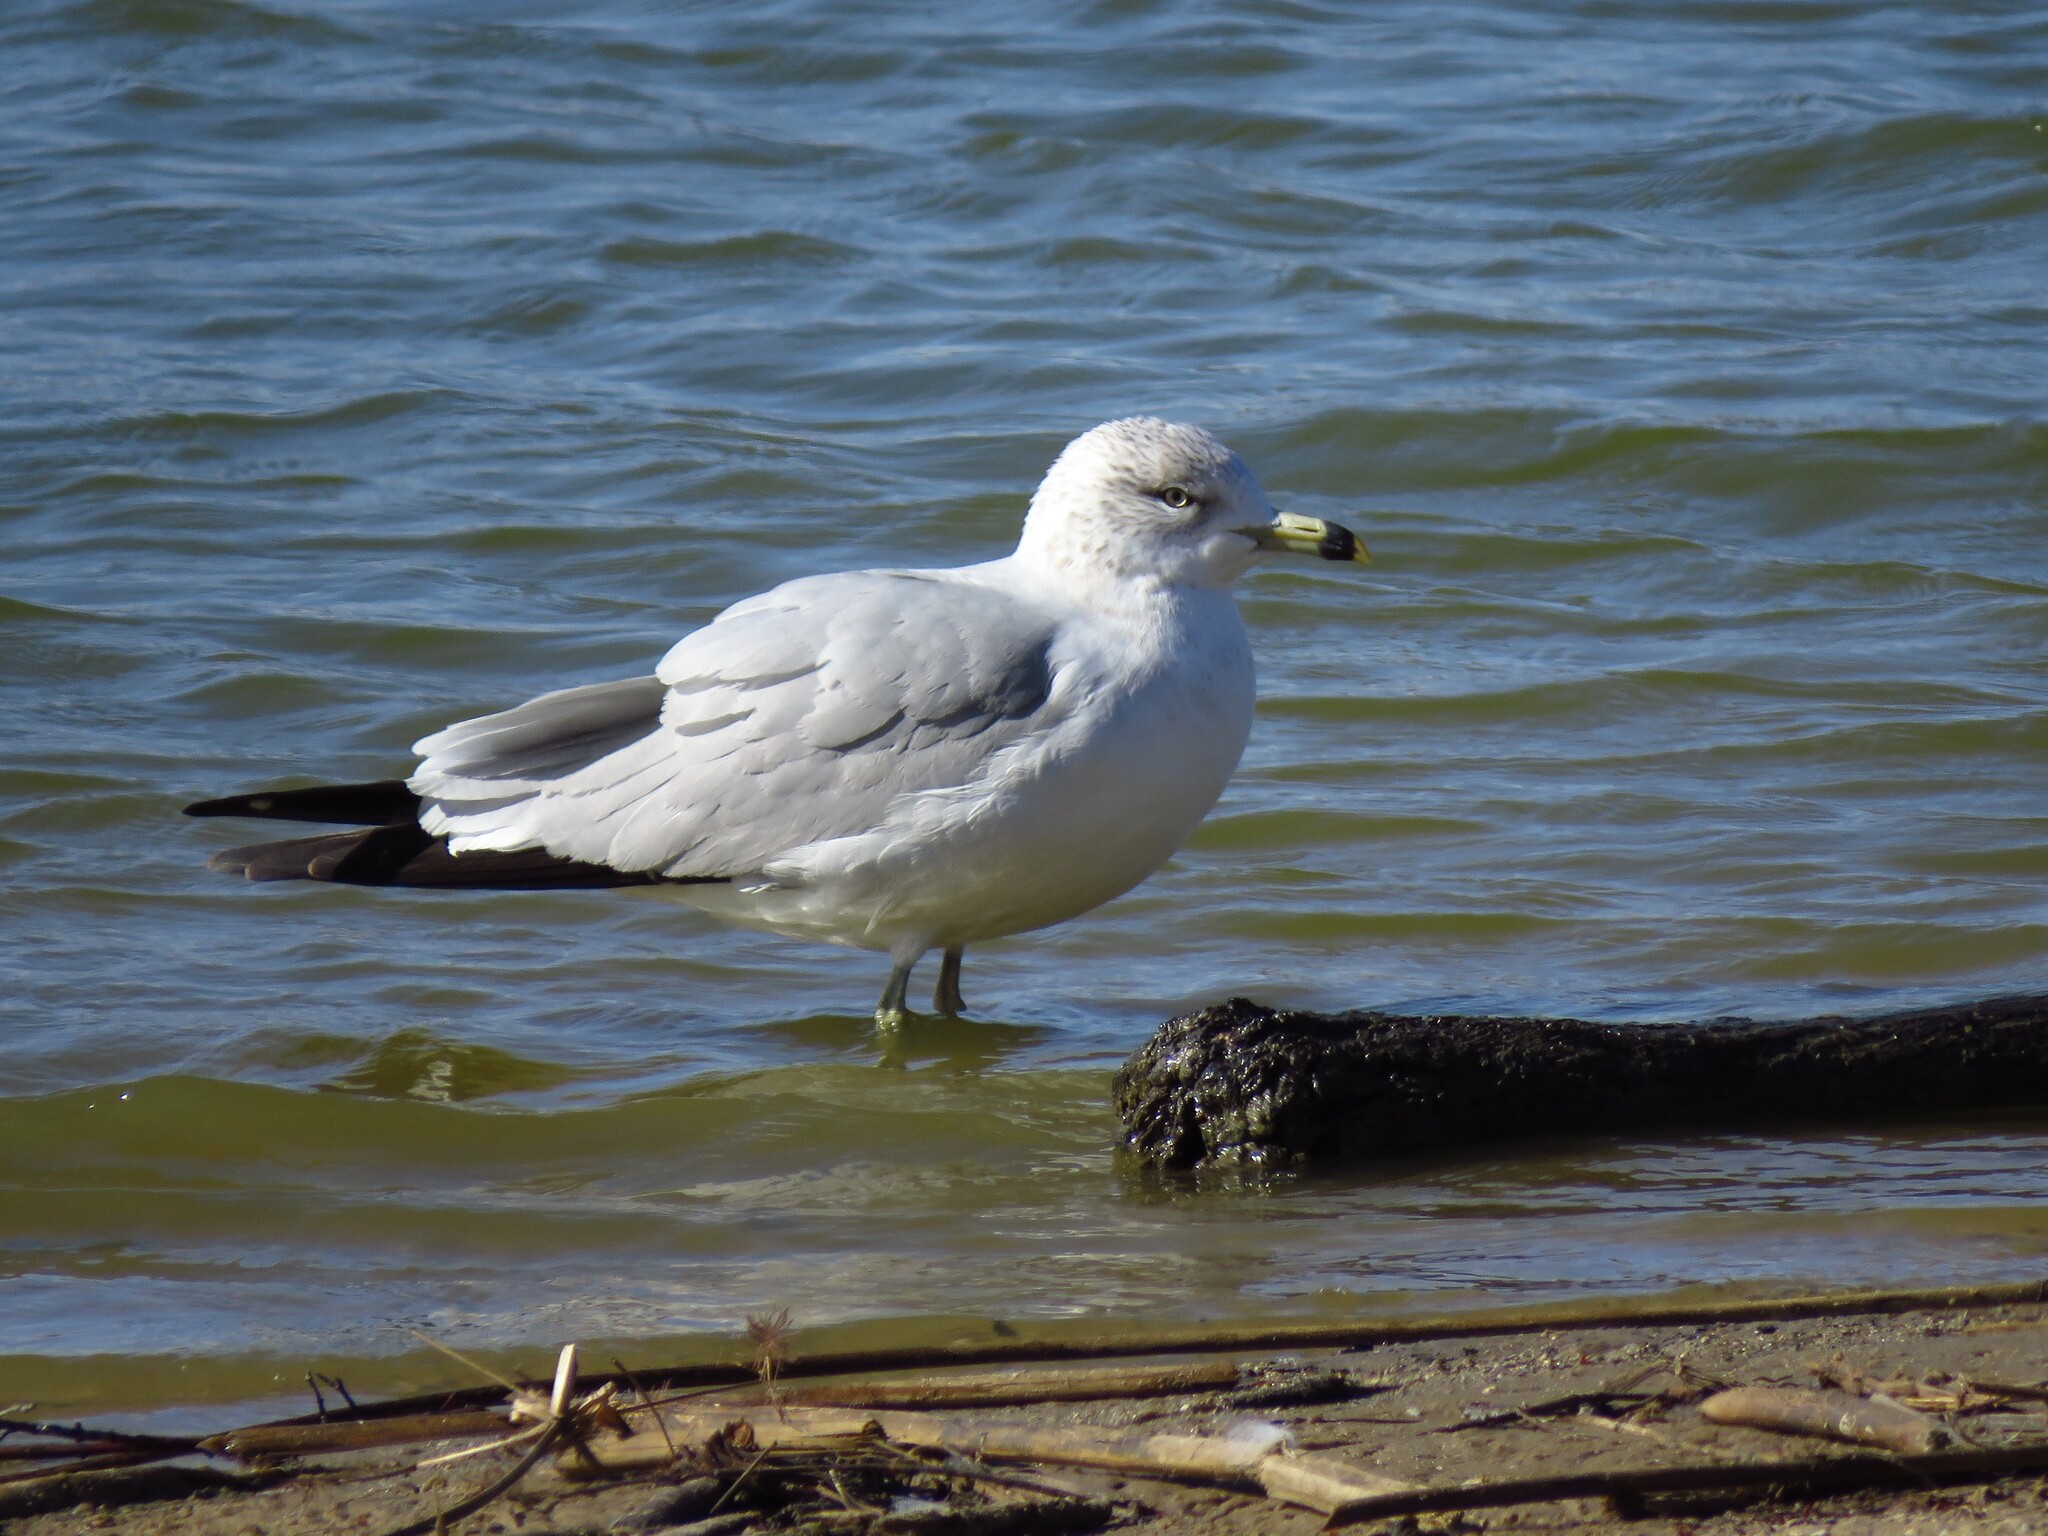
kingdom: Animalia
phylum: Chordata
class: Aves
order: Charadriiformes
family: Laridae
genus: Larus
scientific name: Larus delawarensis
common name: Ring-billed gull
